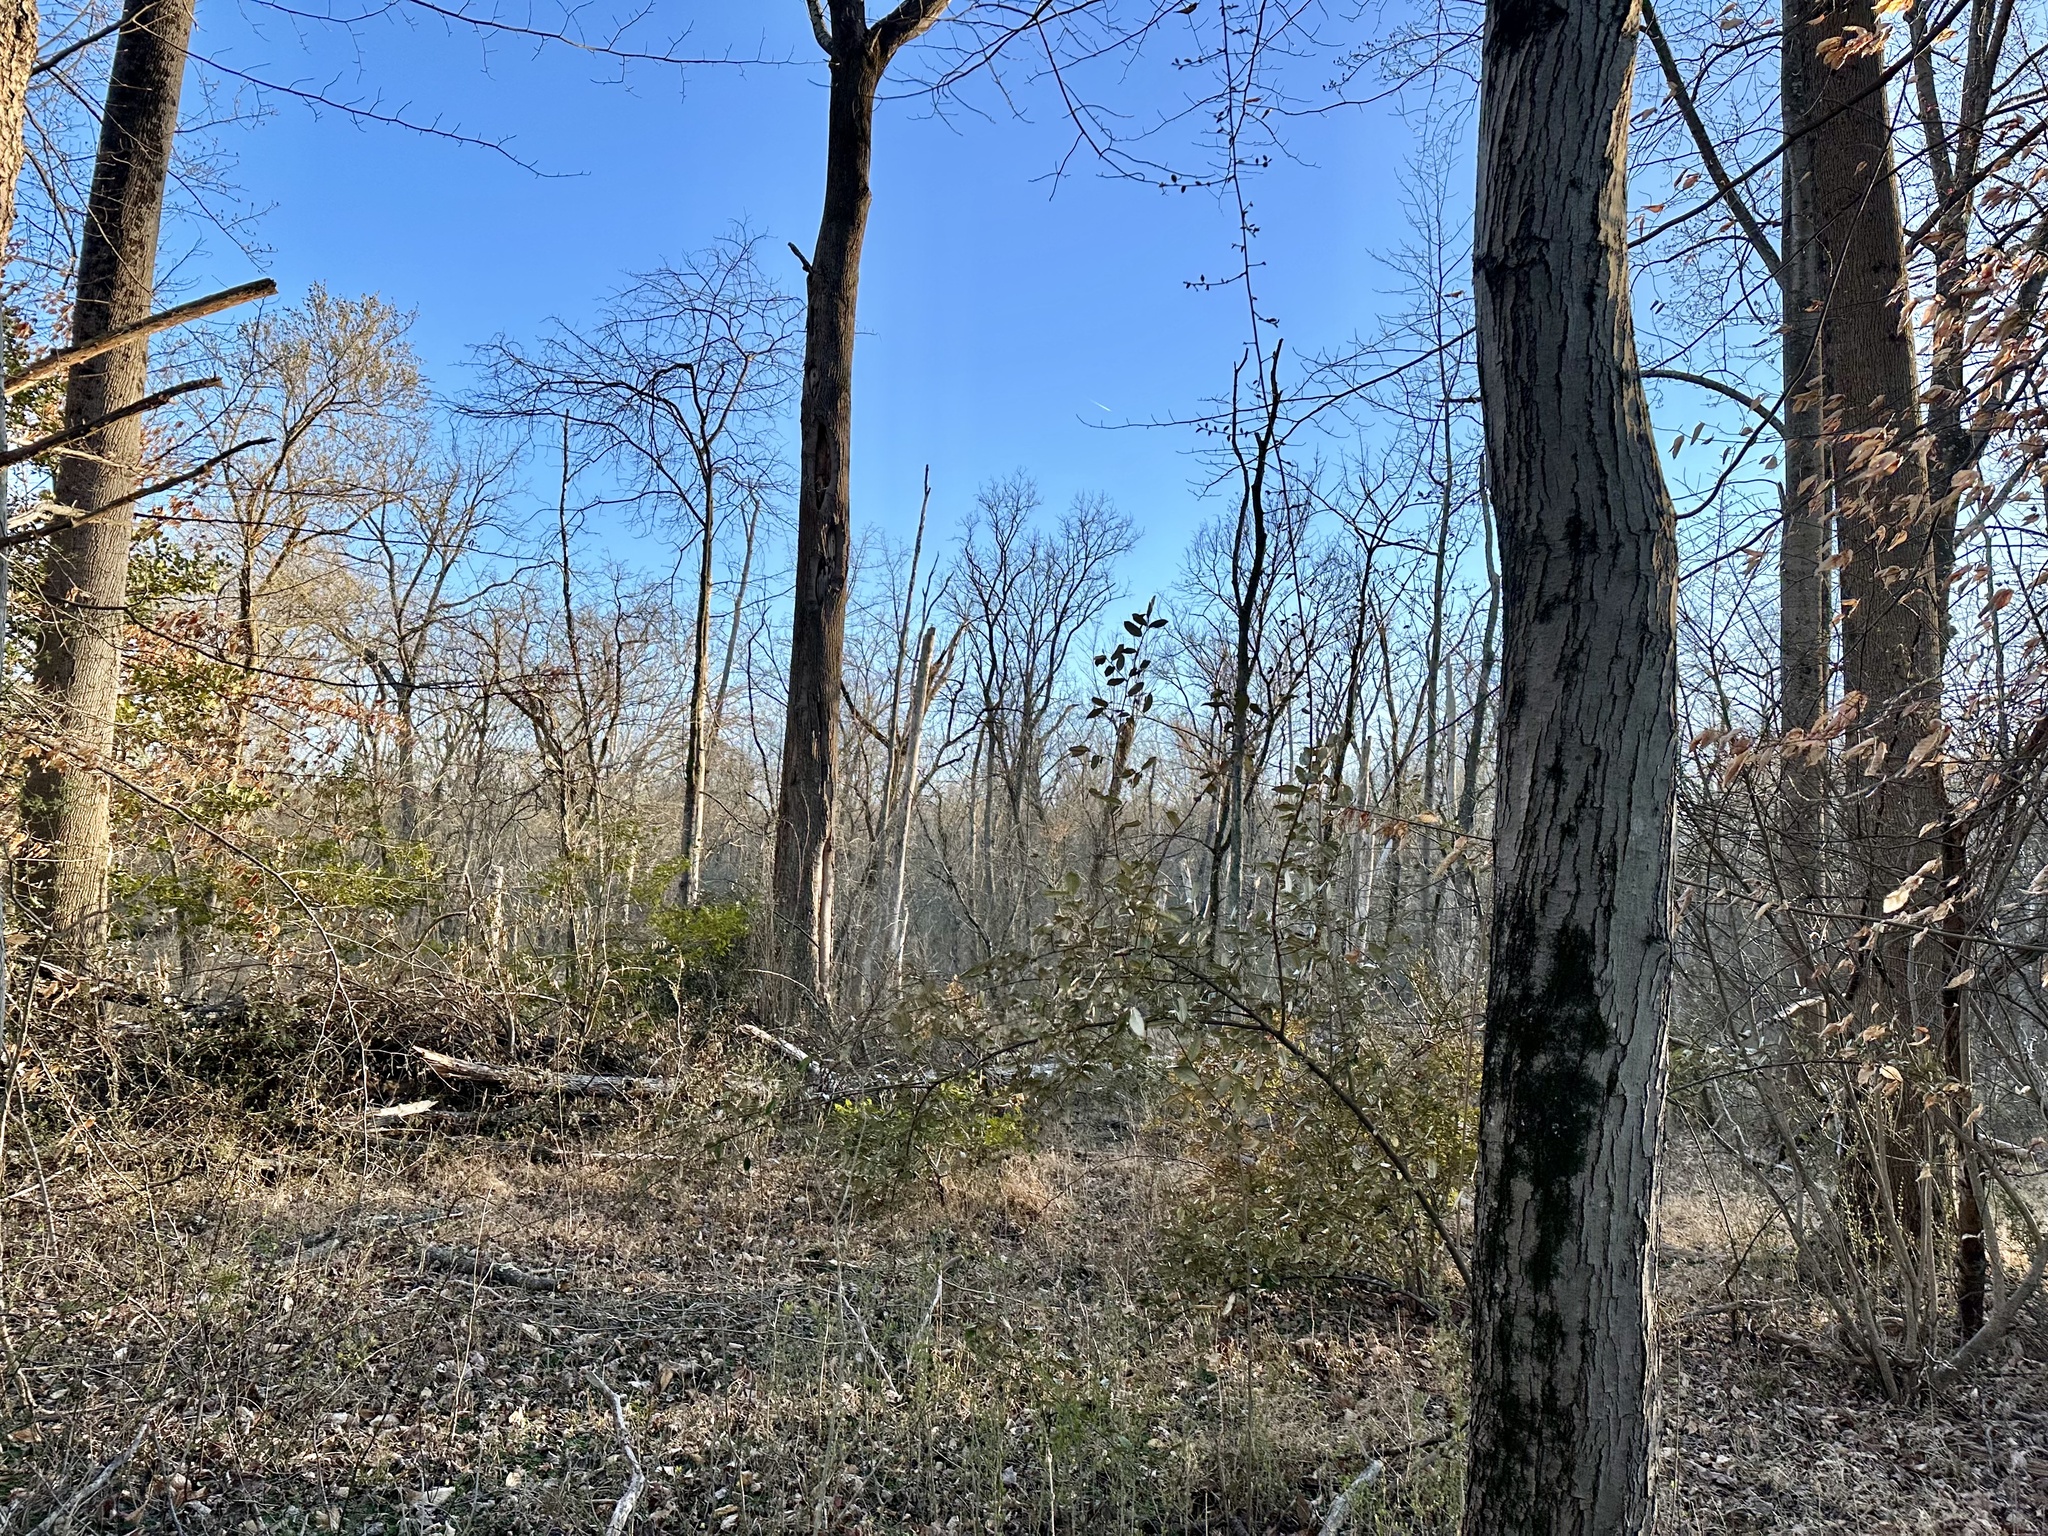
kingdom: Plantae
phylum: Tracheophyta
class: Magnoliopsida
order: Rosales
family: Elaeagnaceae
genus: Elaeagnus
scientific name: Elaeagnus pungens
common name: Spiny oleaster
